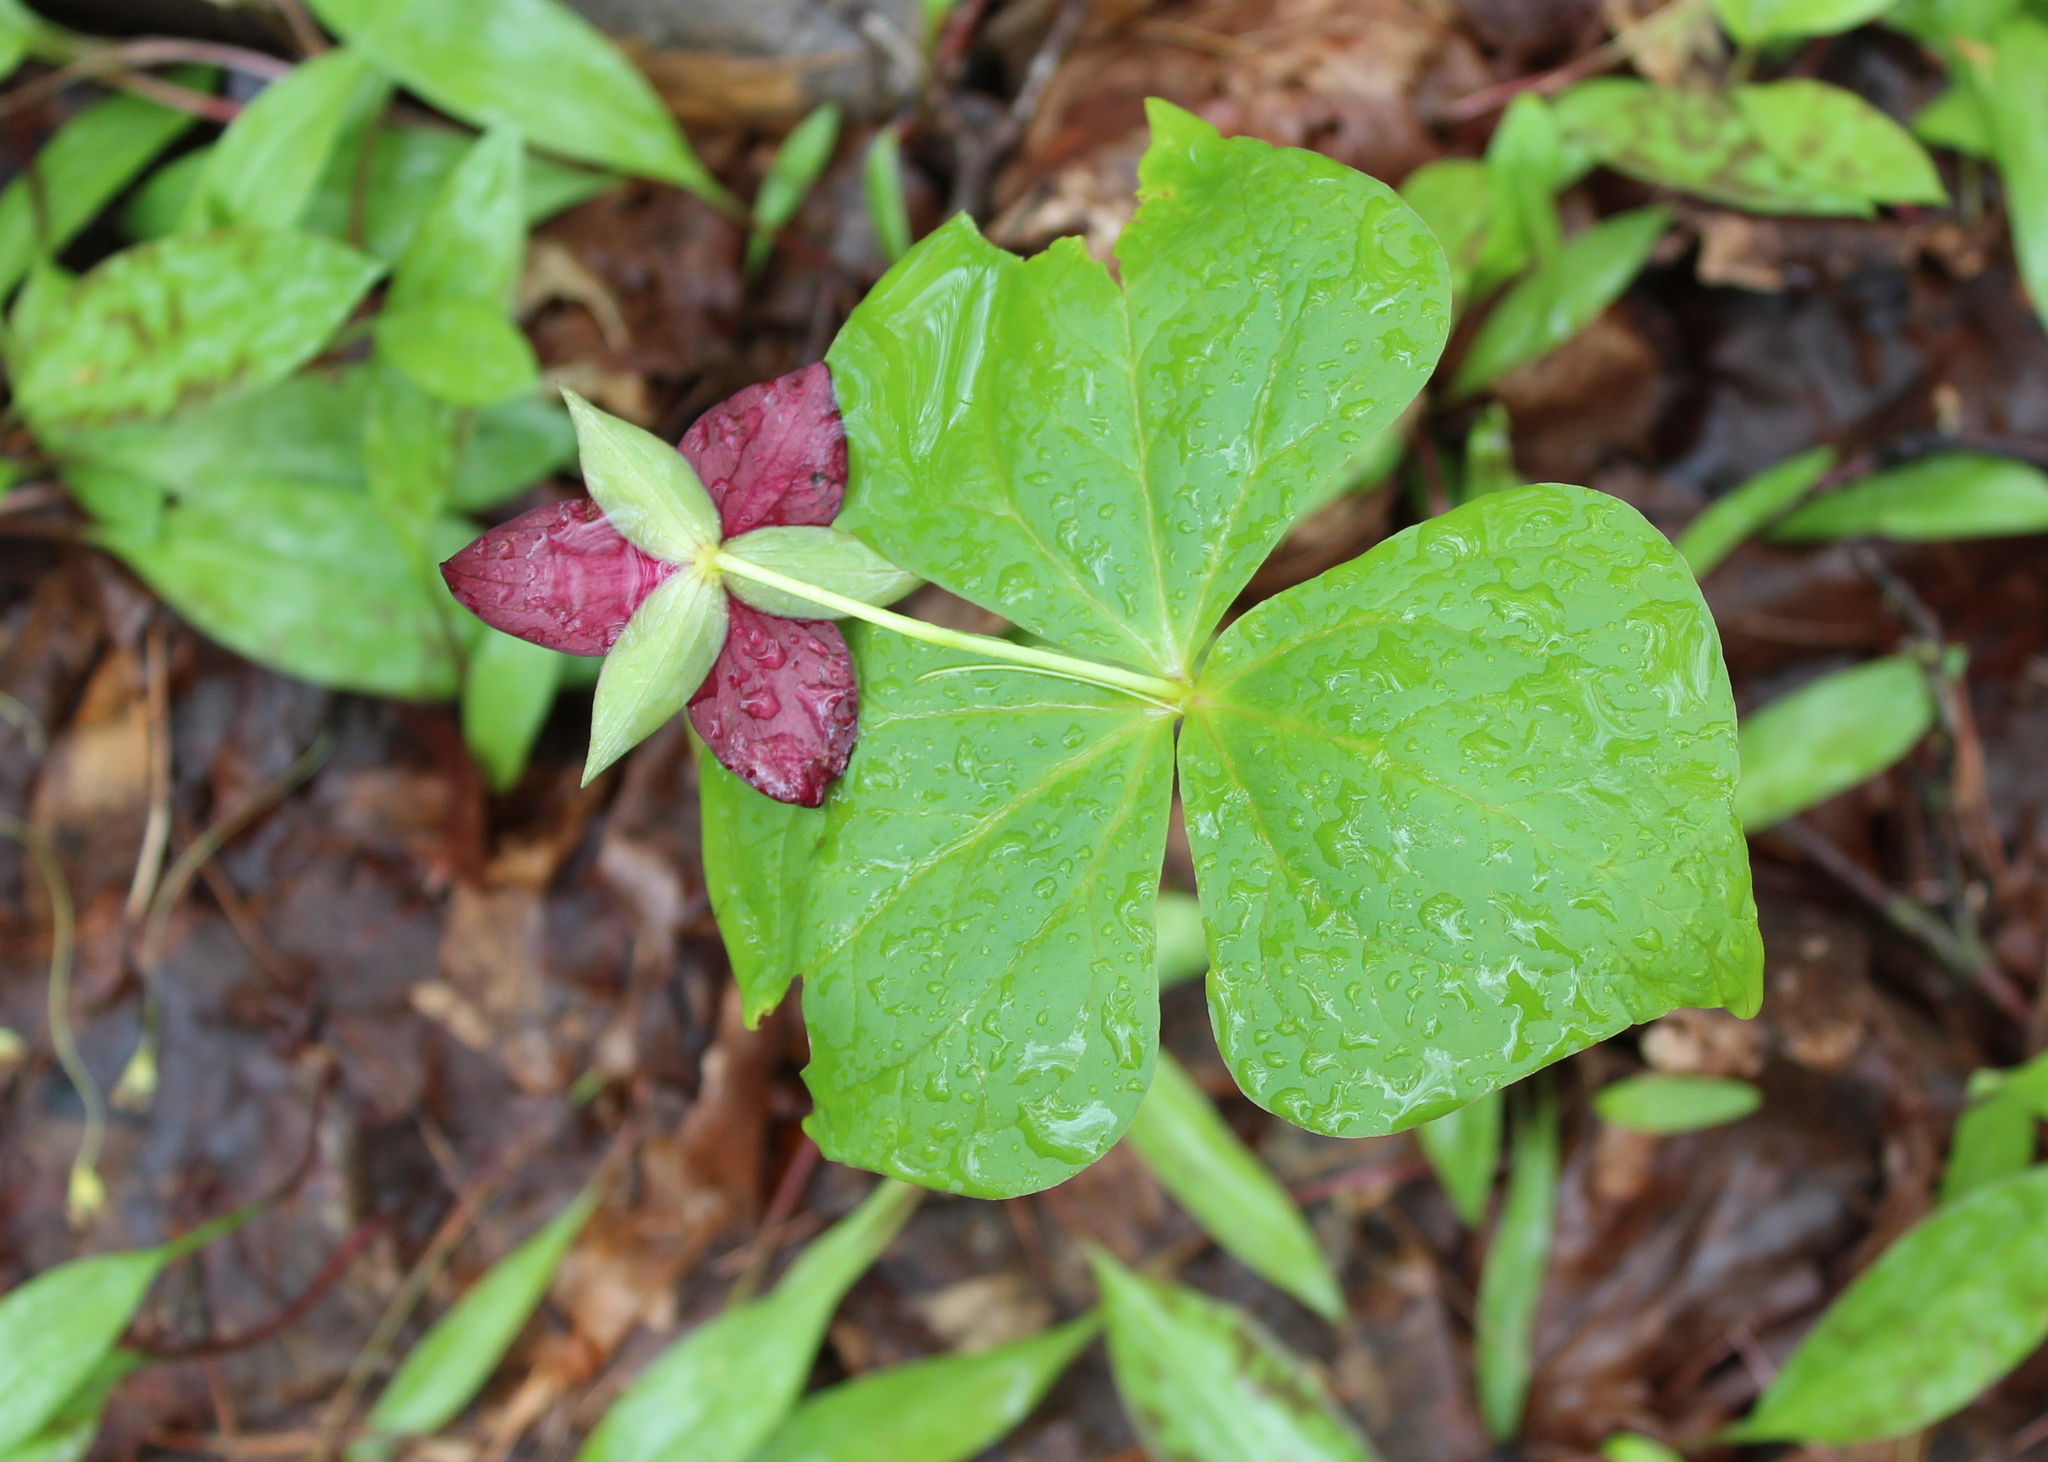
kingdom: Plantae
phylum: Tracheophyta
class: Liliopsida
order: Liliales
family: Melanthiaceae
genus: Trillium
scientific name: Trillium erectum
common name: Purple trillium
